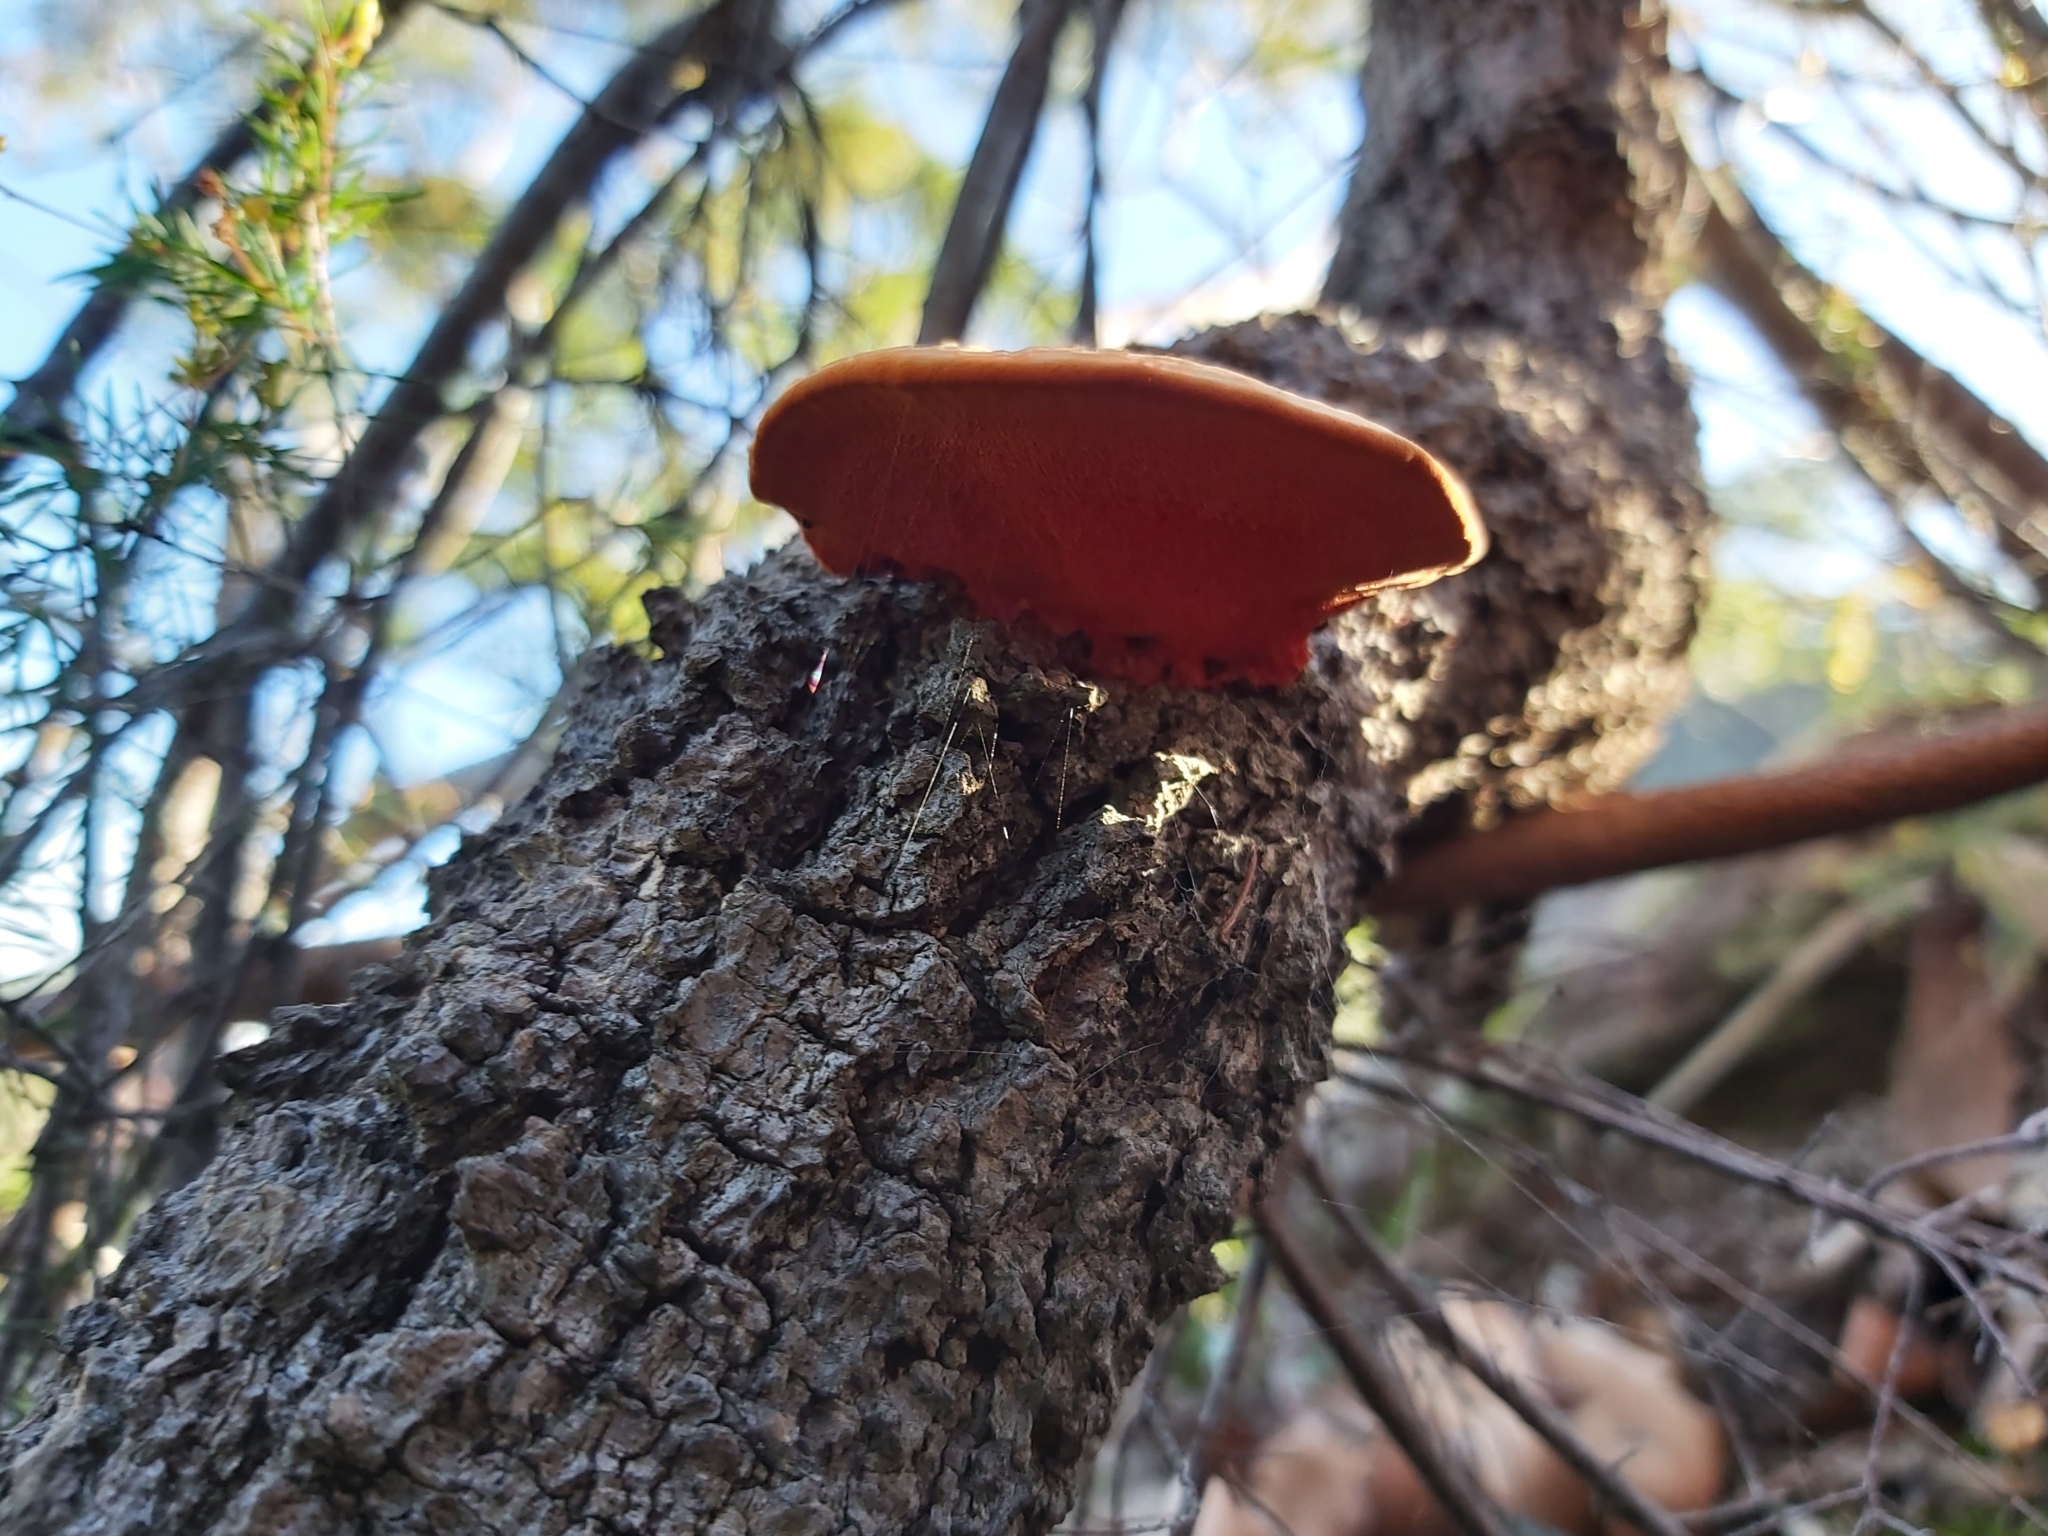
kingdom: Fungi
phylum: Basidiomycota
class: Agaricomycetes
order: Polyporales
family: Polyporaceae
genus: Trametes
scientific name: Trametes coccinea
